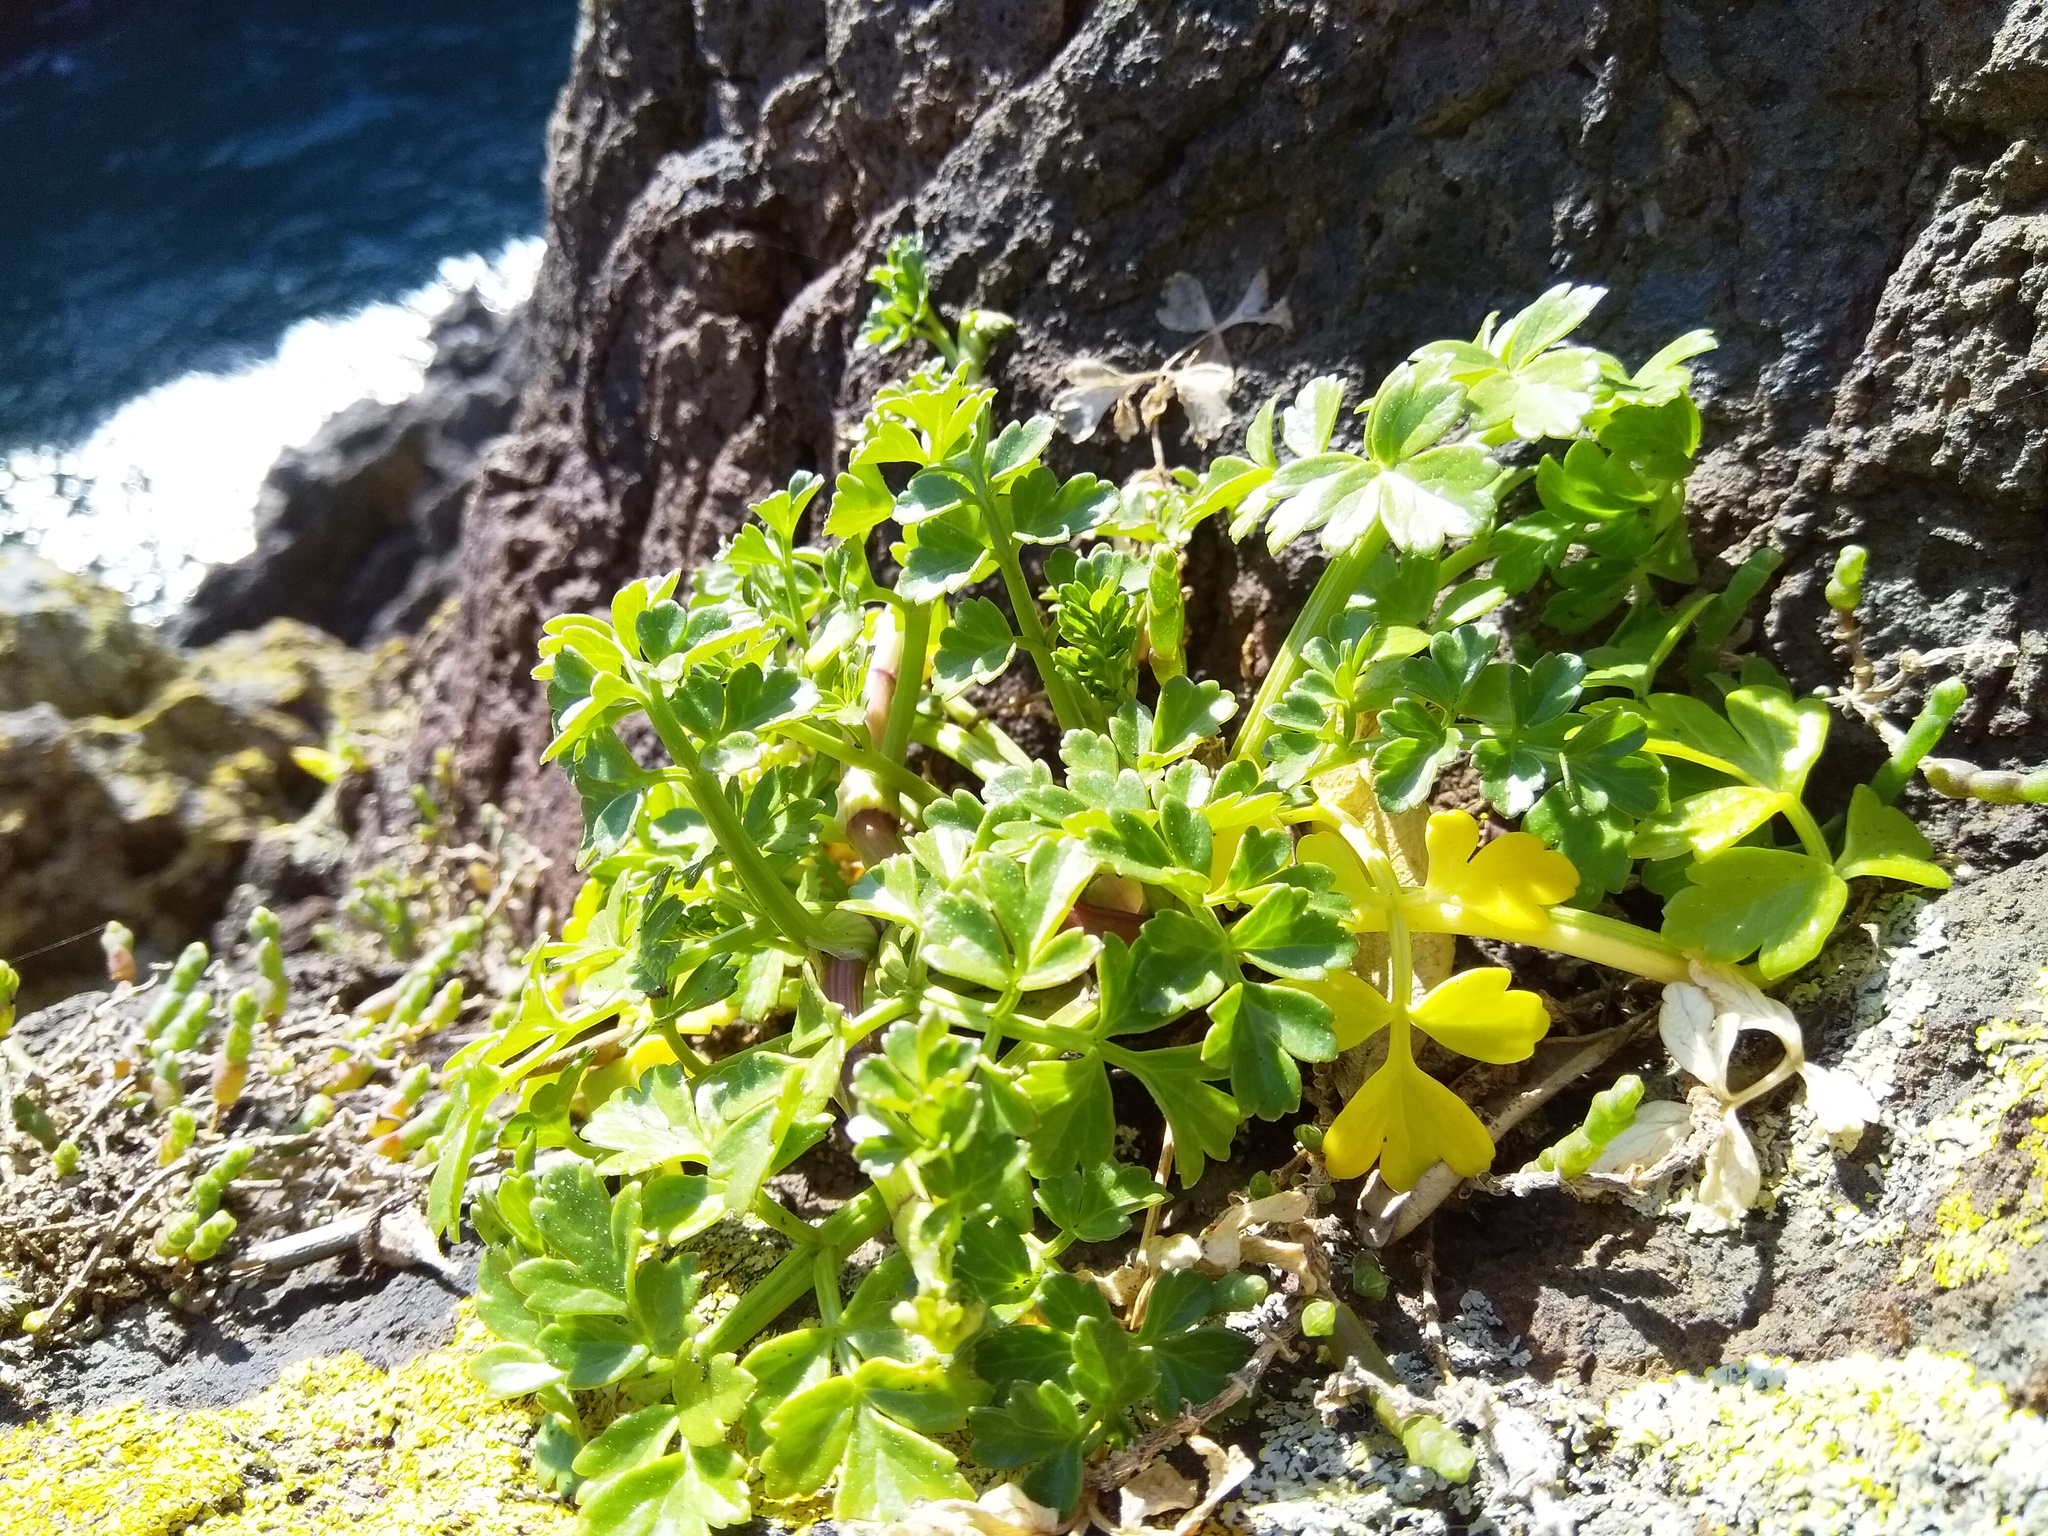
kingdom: Plantae
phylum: Tracheophyta
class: Magnoliopsida
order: Apiales
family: Apiaceae
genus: Apium
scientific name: Apium prostratum
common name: Prostrate marshwort
